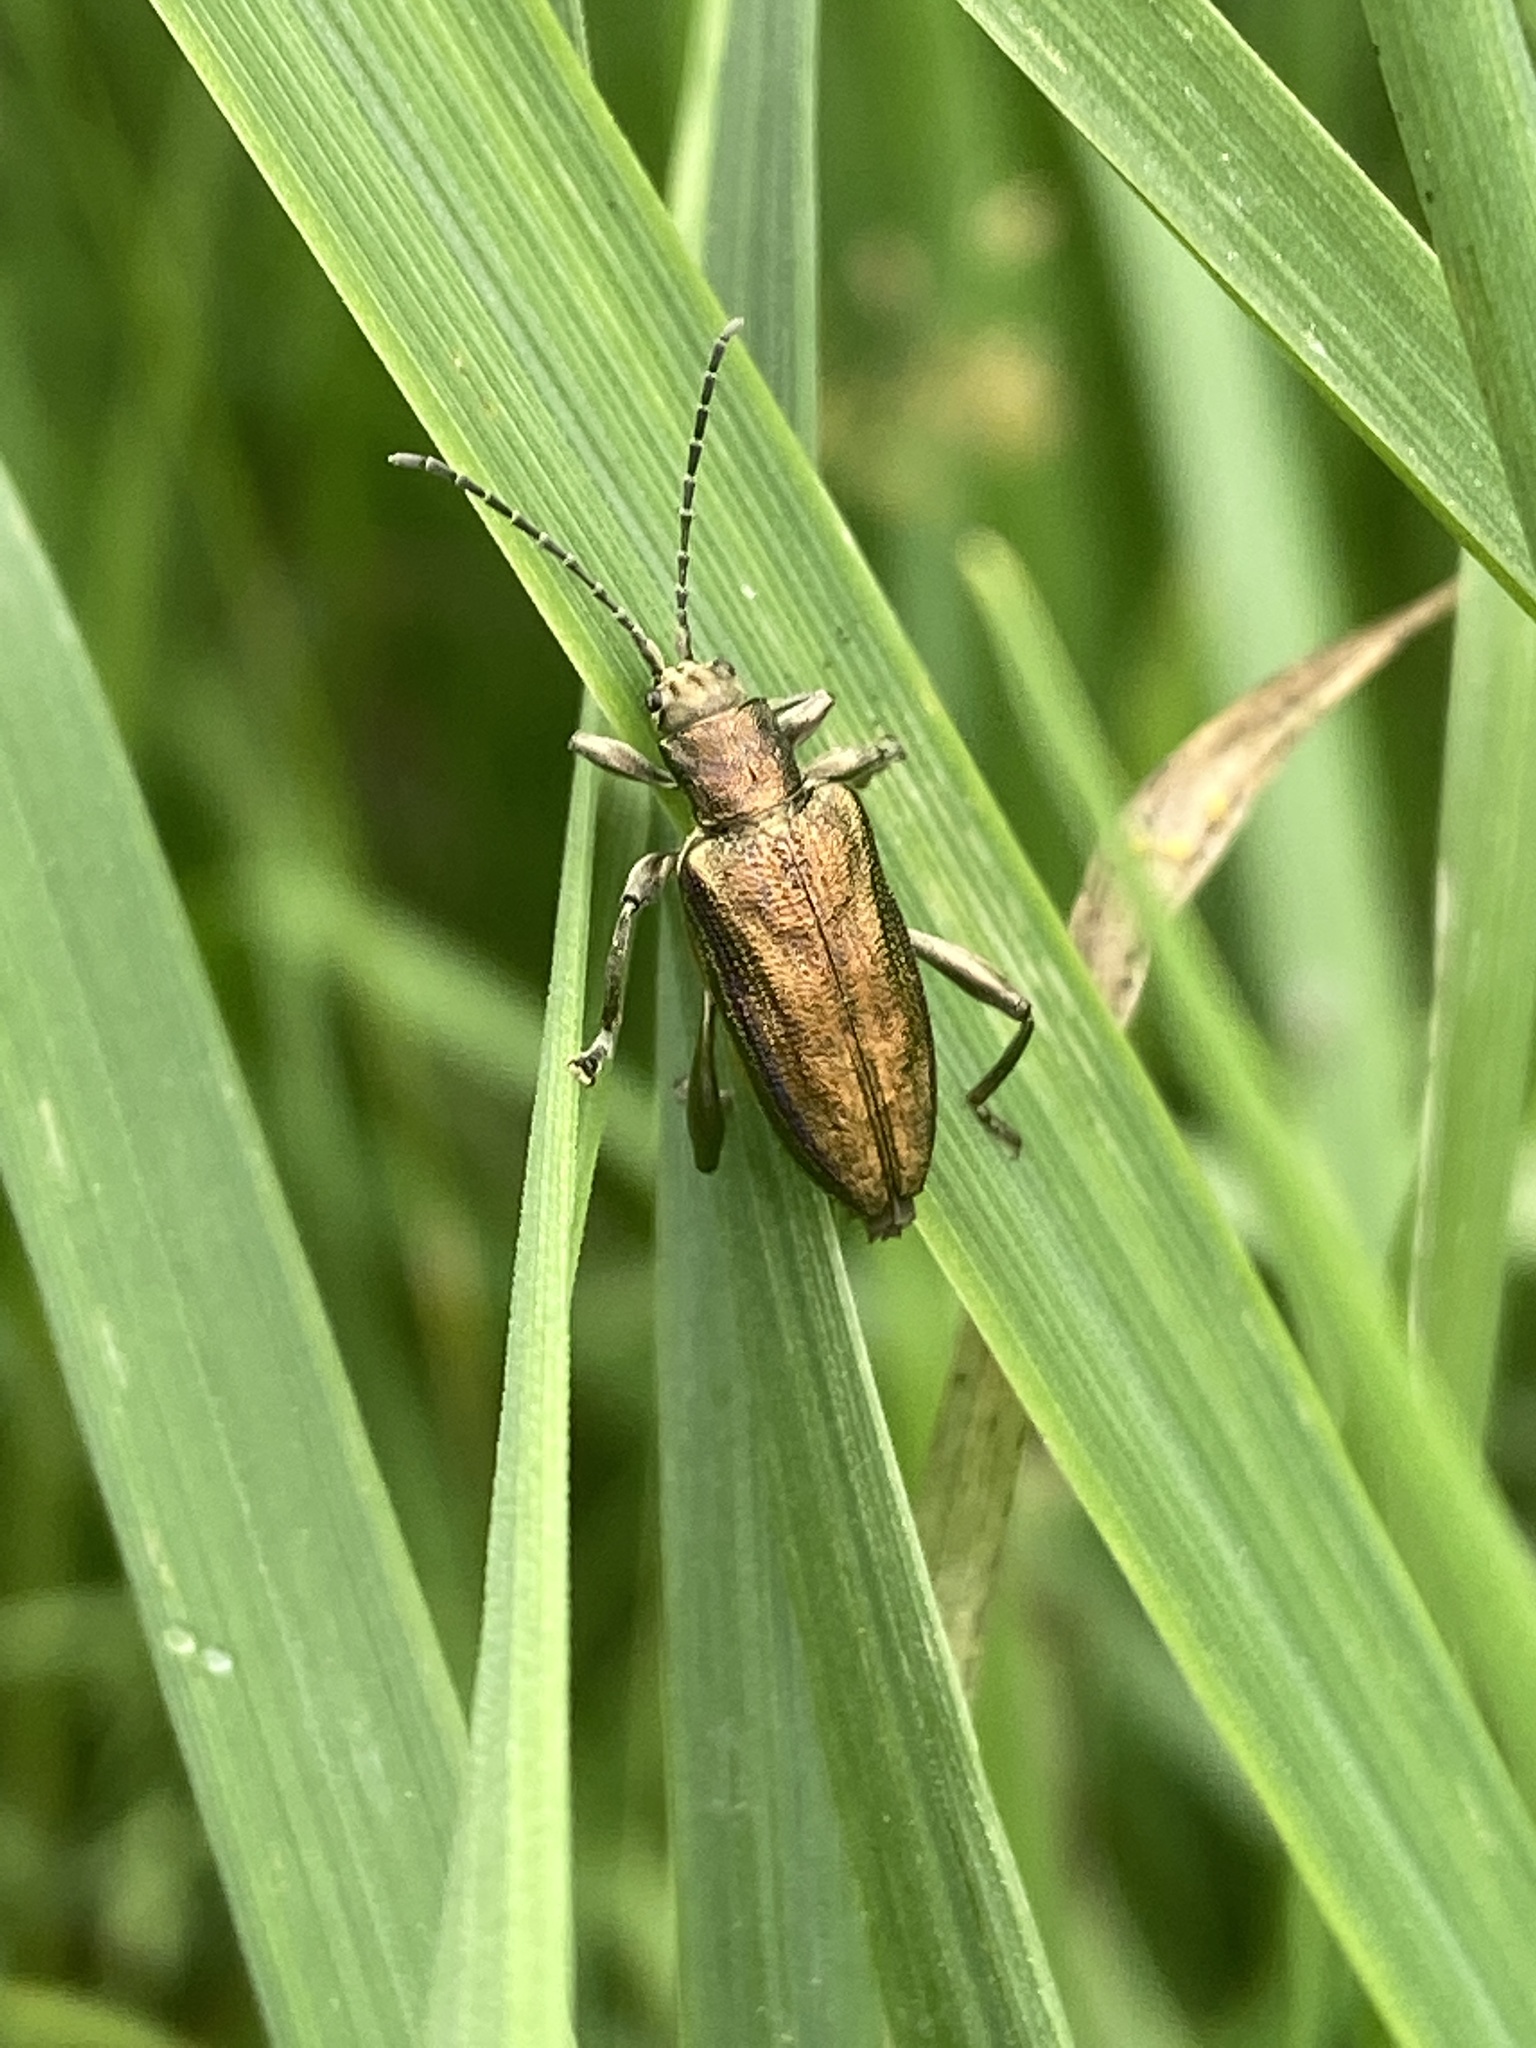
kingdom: Animalia
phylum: Arthropoda
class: Insecta
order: Coleoptera
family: Chrysomelidae
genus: Donacia
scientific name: Donacia marginata
